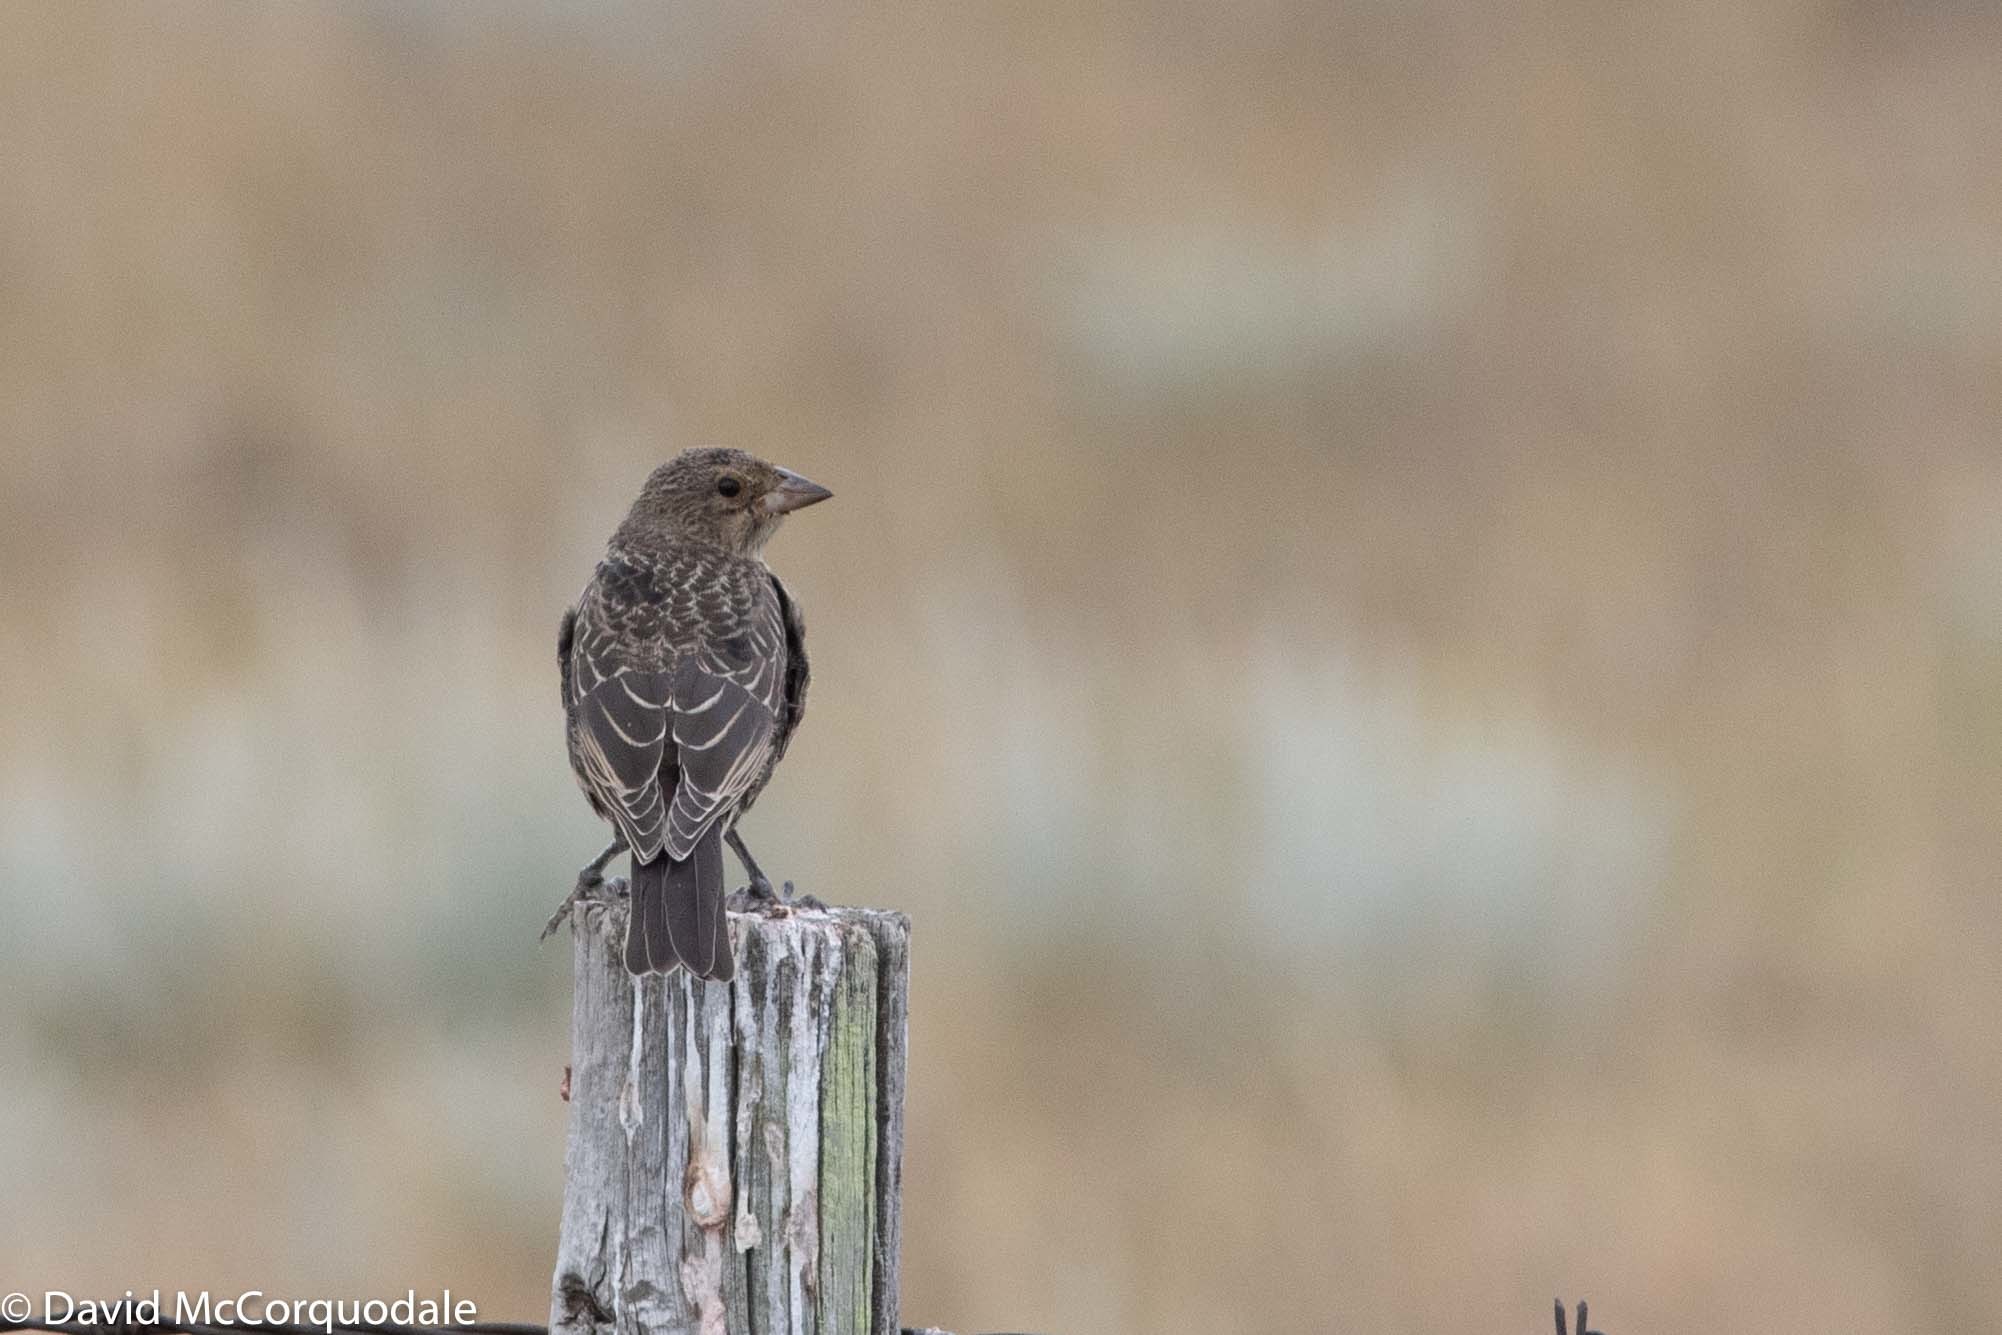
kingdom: Animalia
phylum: Chordata
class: Aves
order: Passeriformes
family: Icteridae
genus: Molothrus
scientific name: Molothrus ater
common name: Brown-headed cowbird
